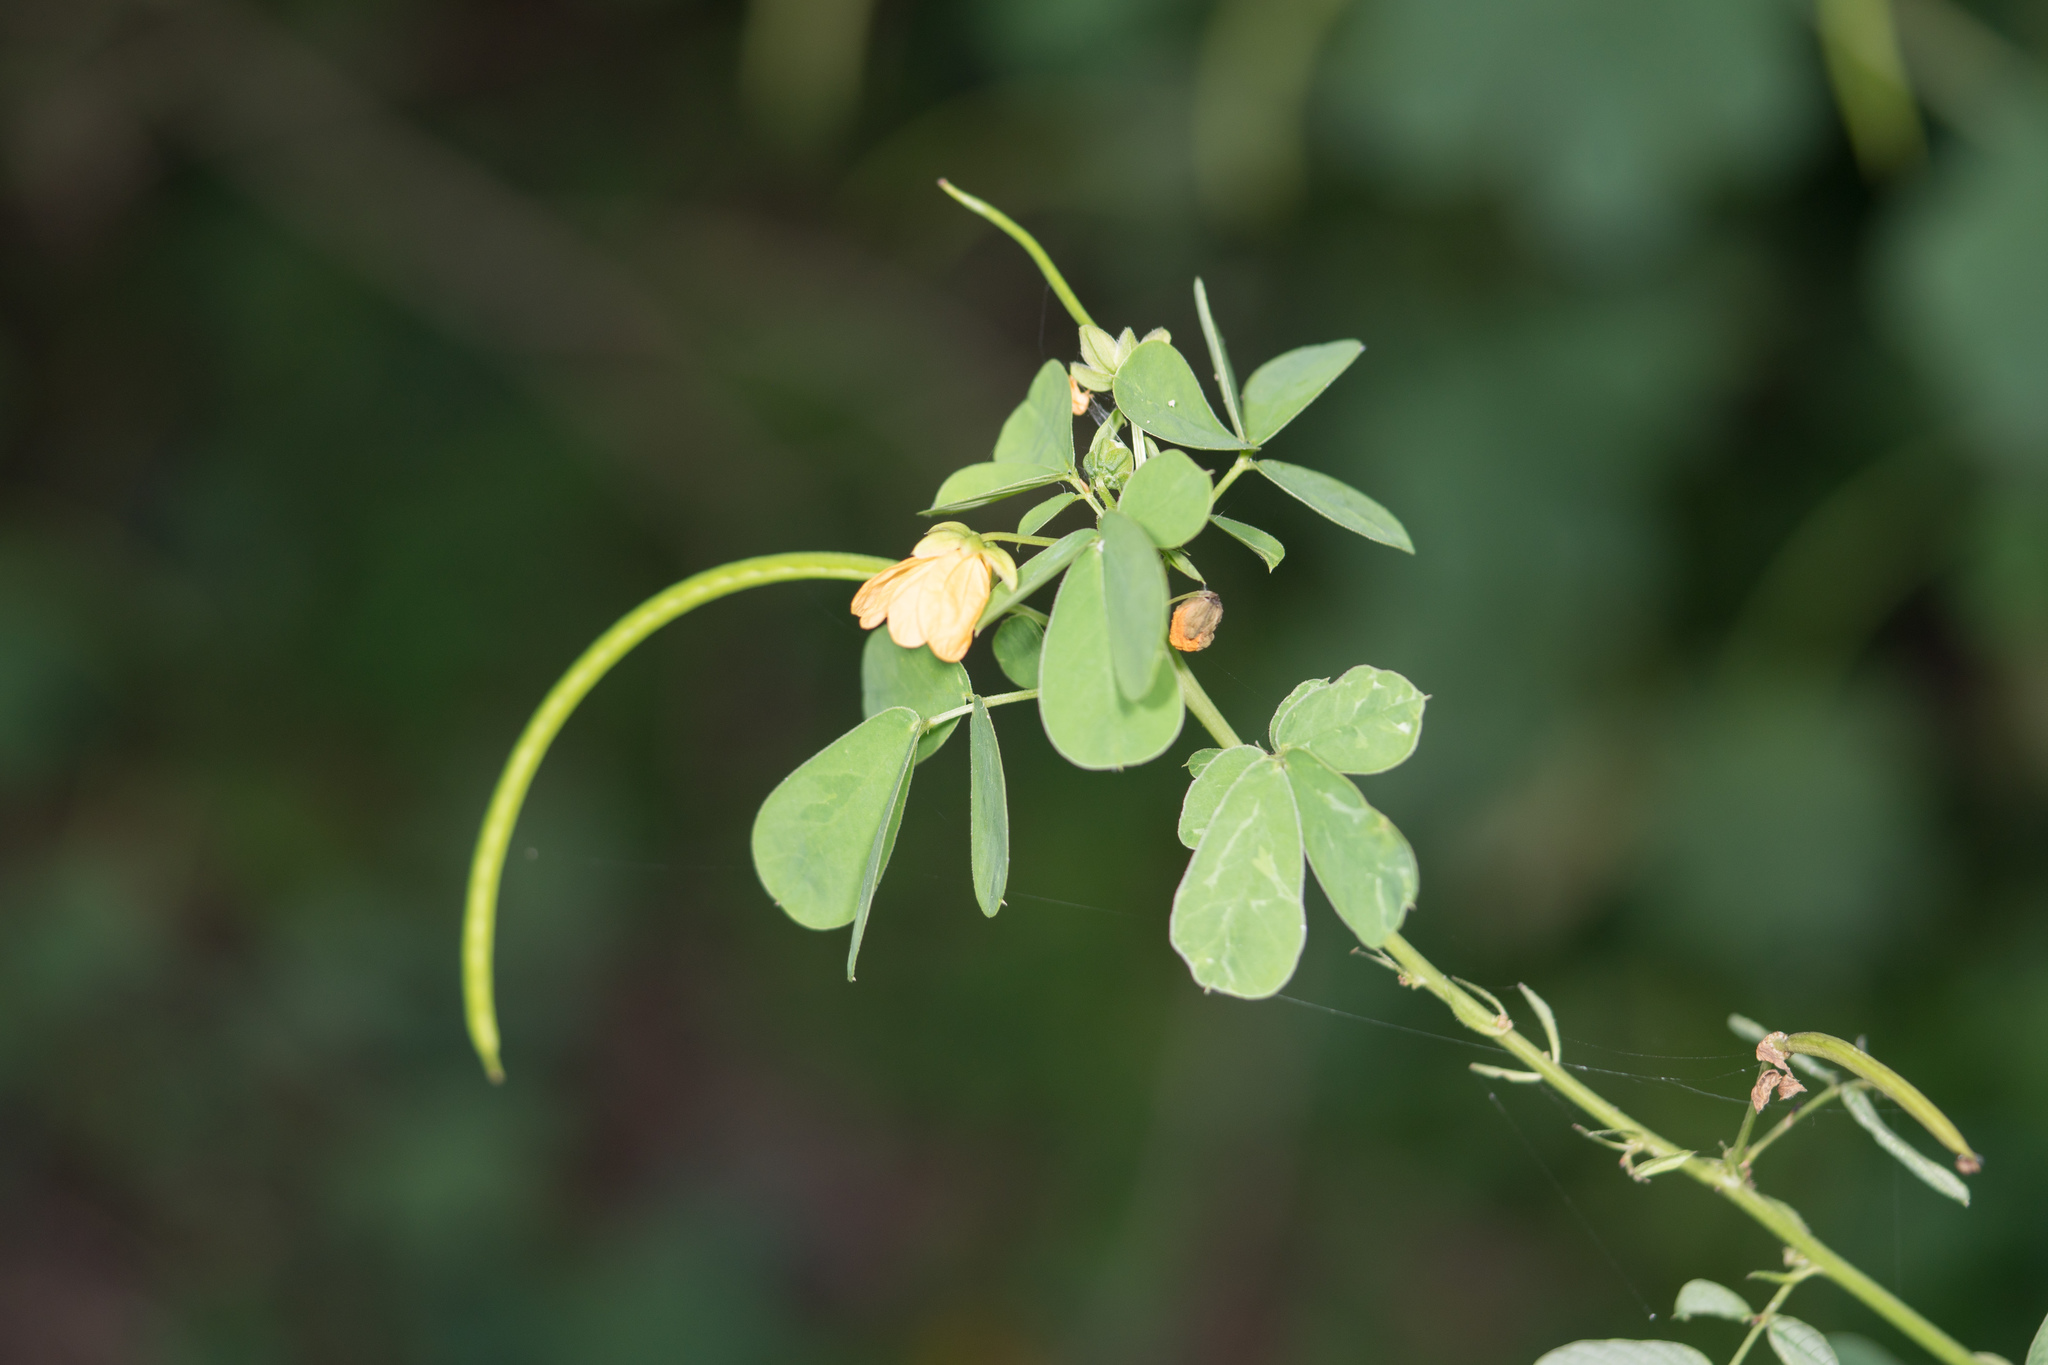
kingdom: Plantae
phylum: Tracheophyta
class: Magnoliopsida
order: Fabales
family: Fabaceae
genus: Senna
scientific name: Senna obtusifolia
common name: Java-bean
